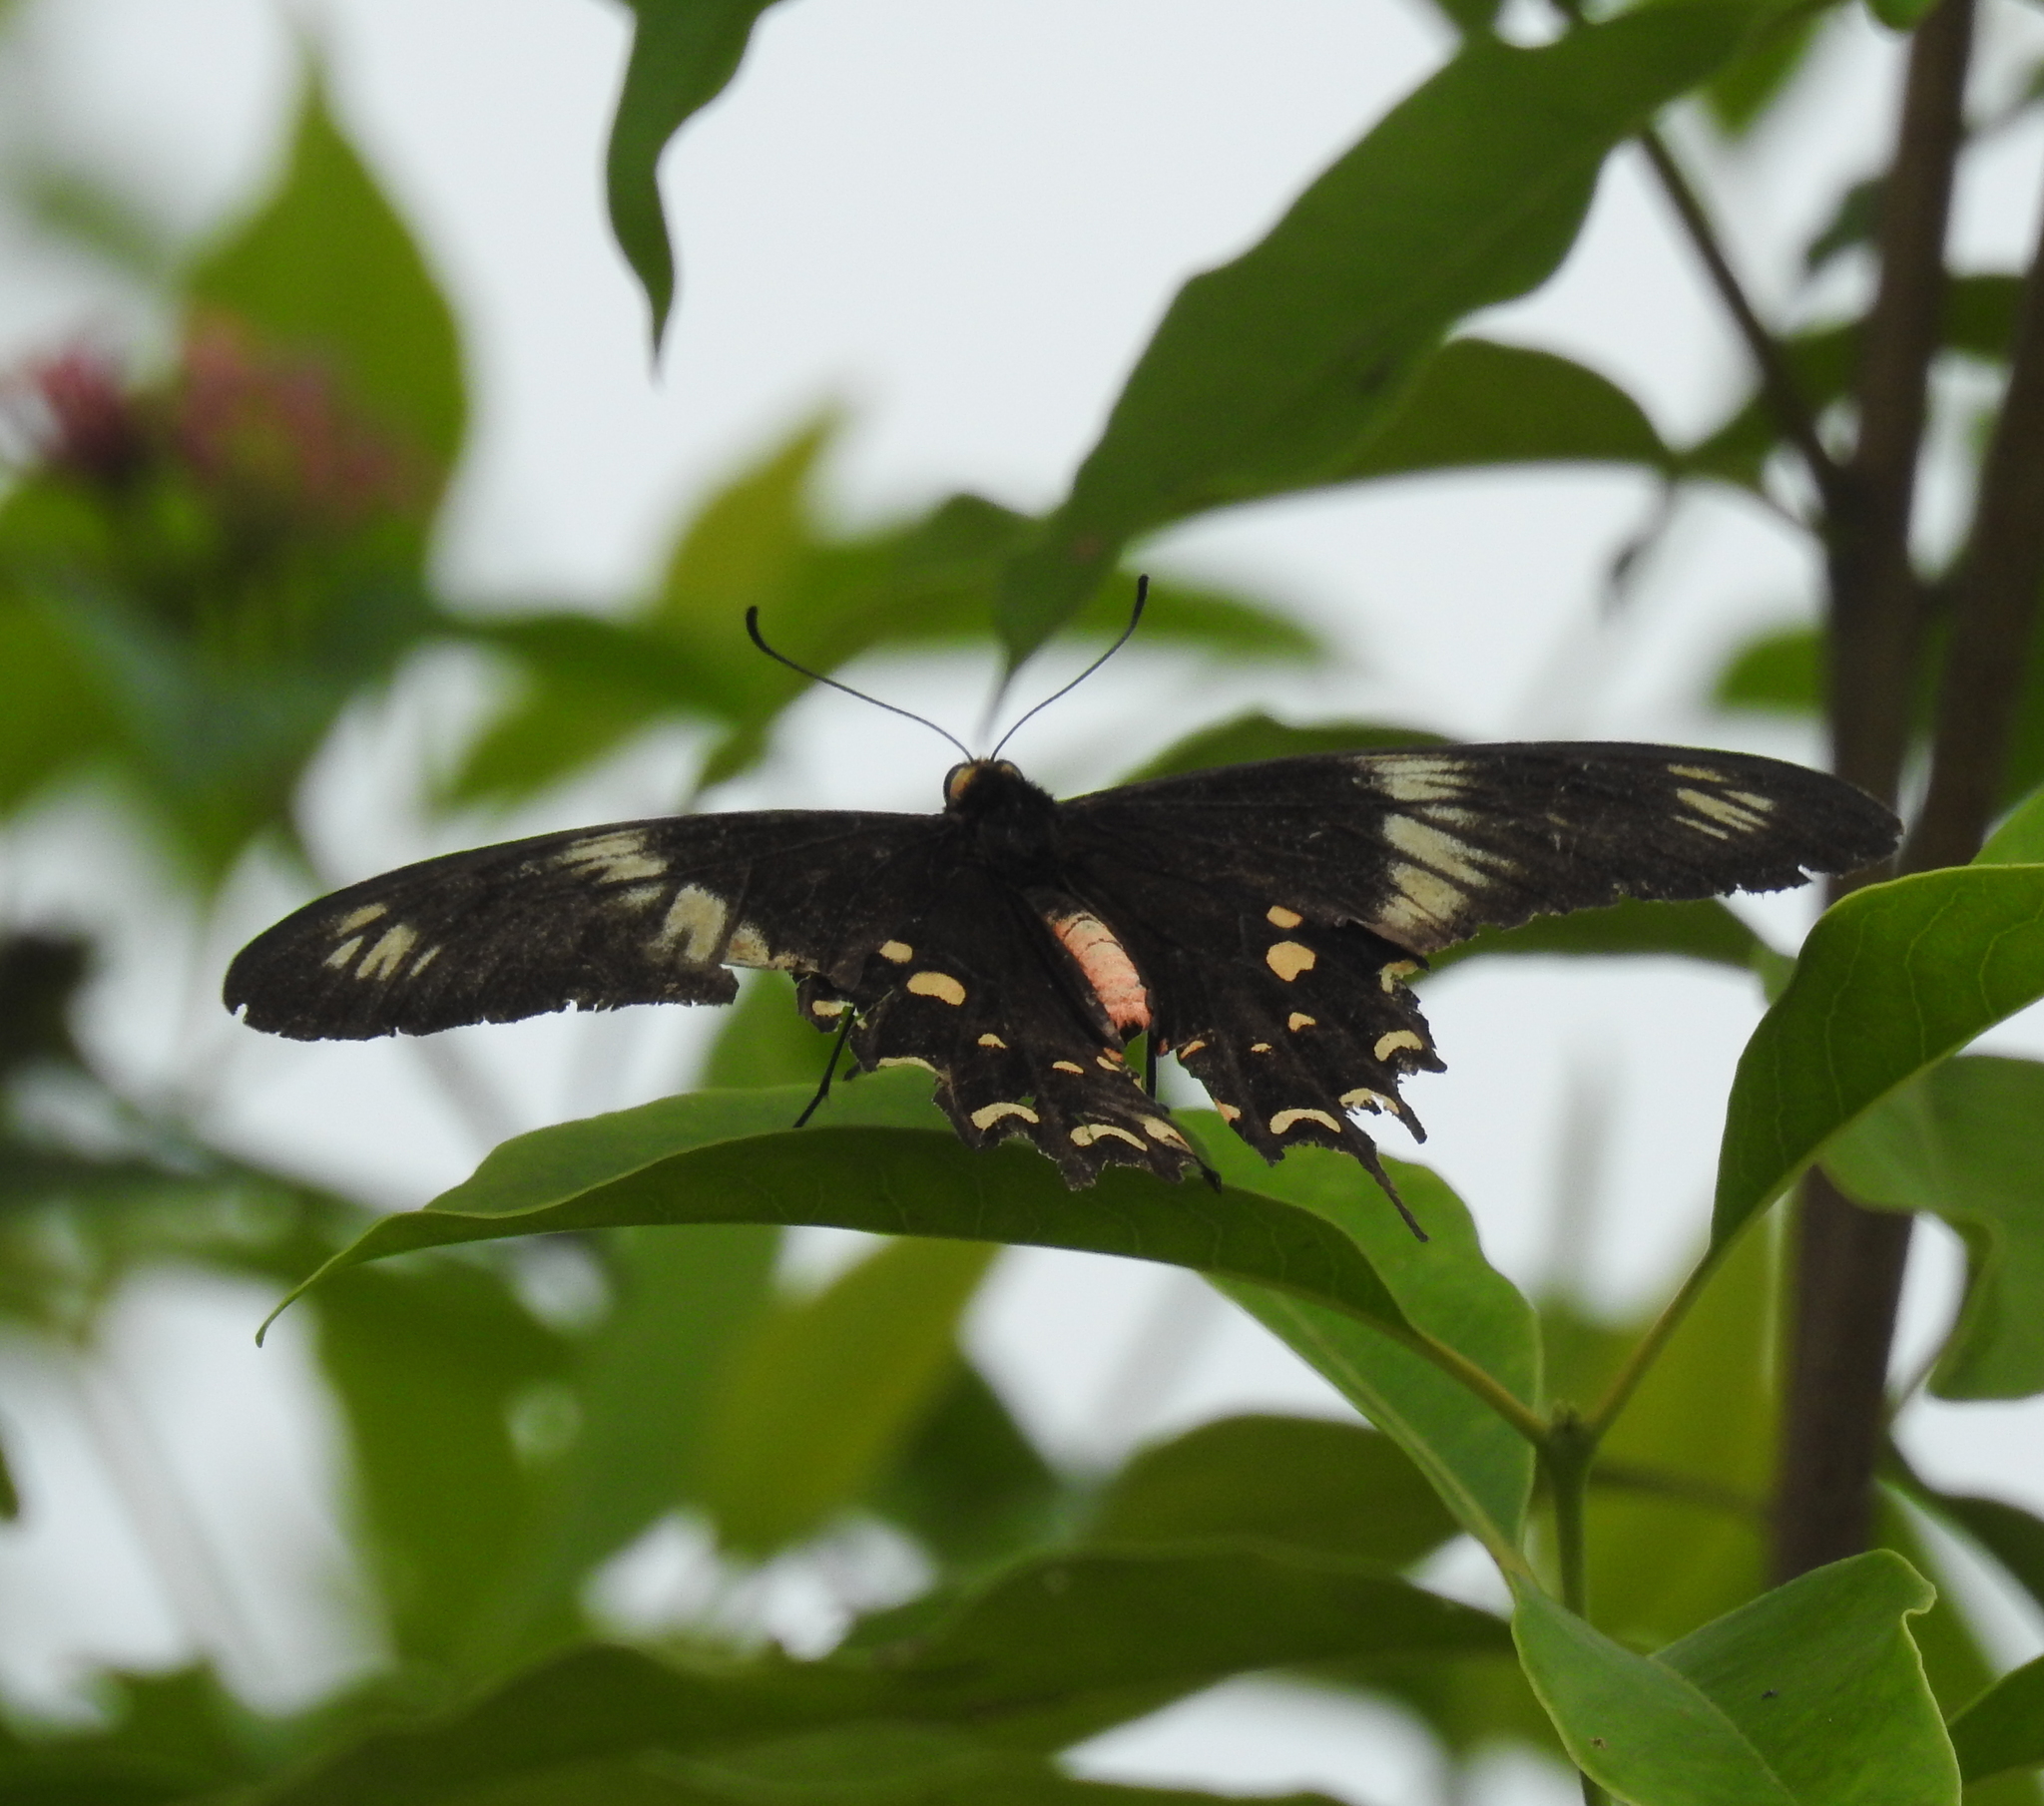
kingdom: Animalia
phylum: Arthropoda
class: Insecta
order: Lepidoptera
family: Papilionidae
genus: Pachliopta
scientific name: Pachliopta hector
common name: Crimson rose
